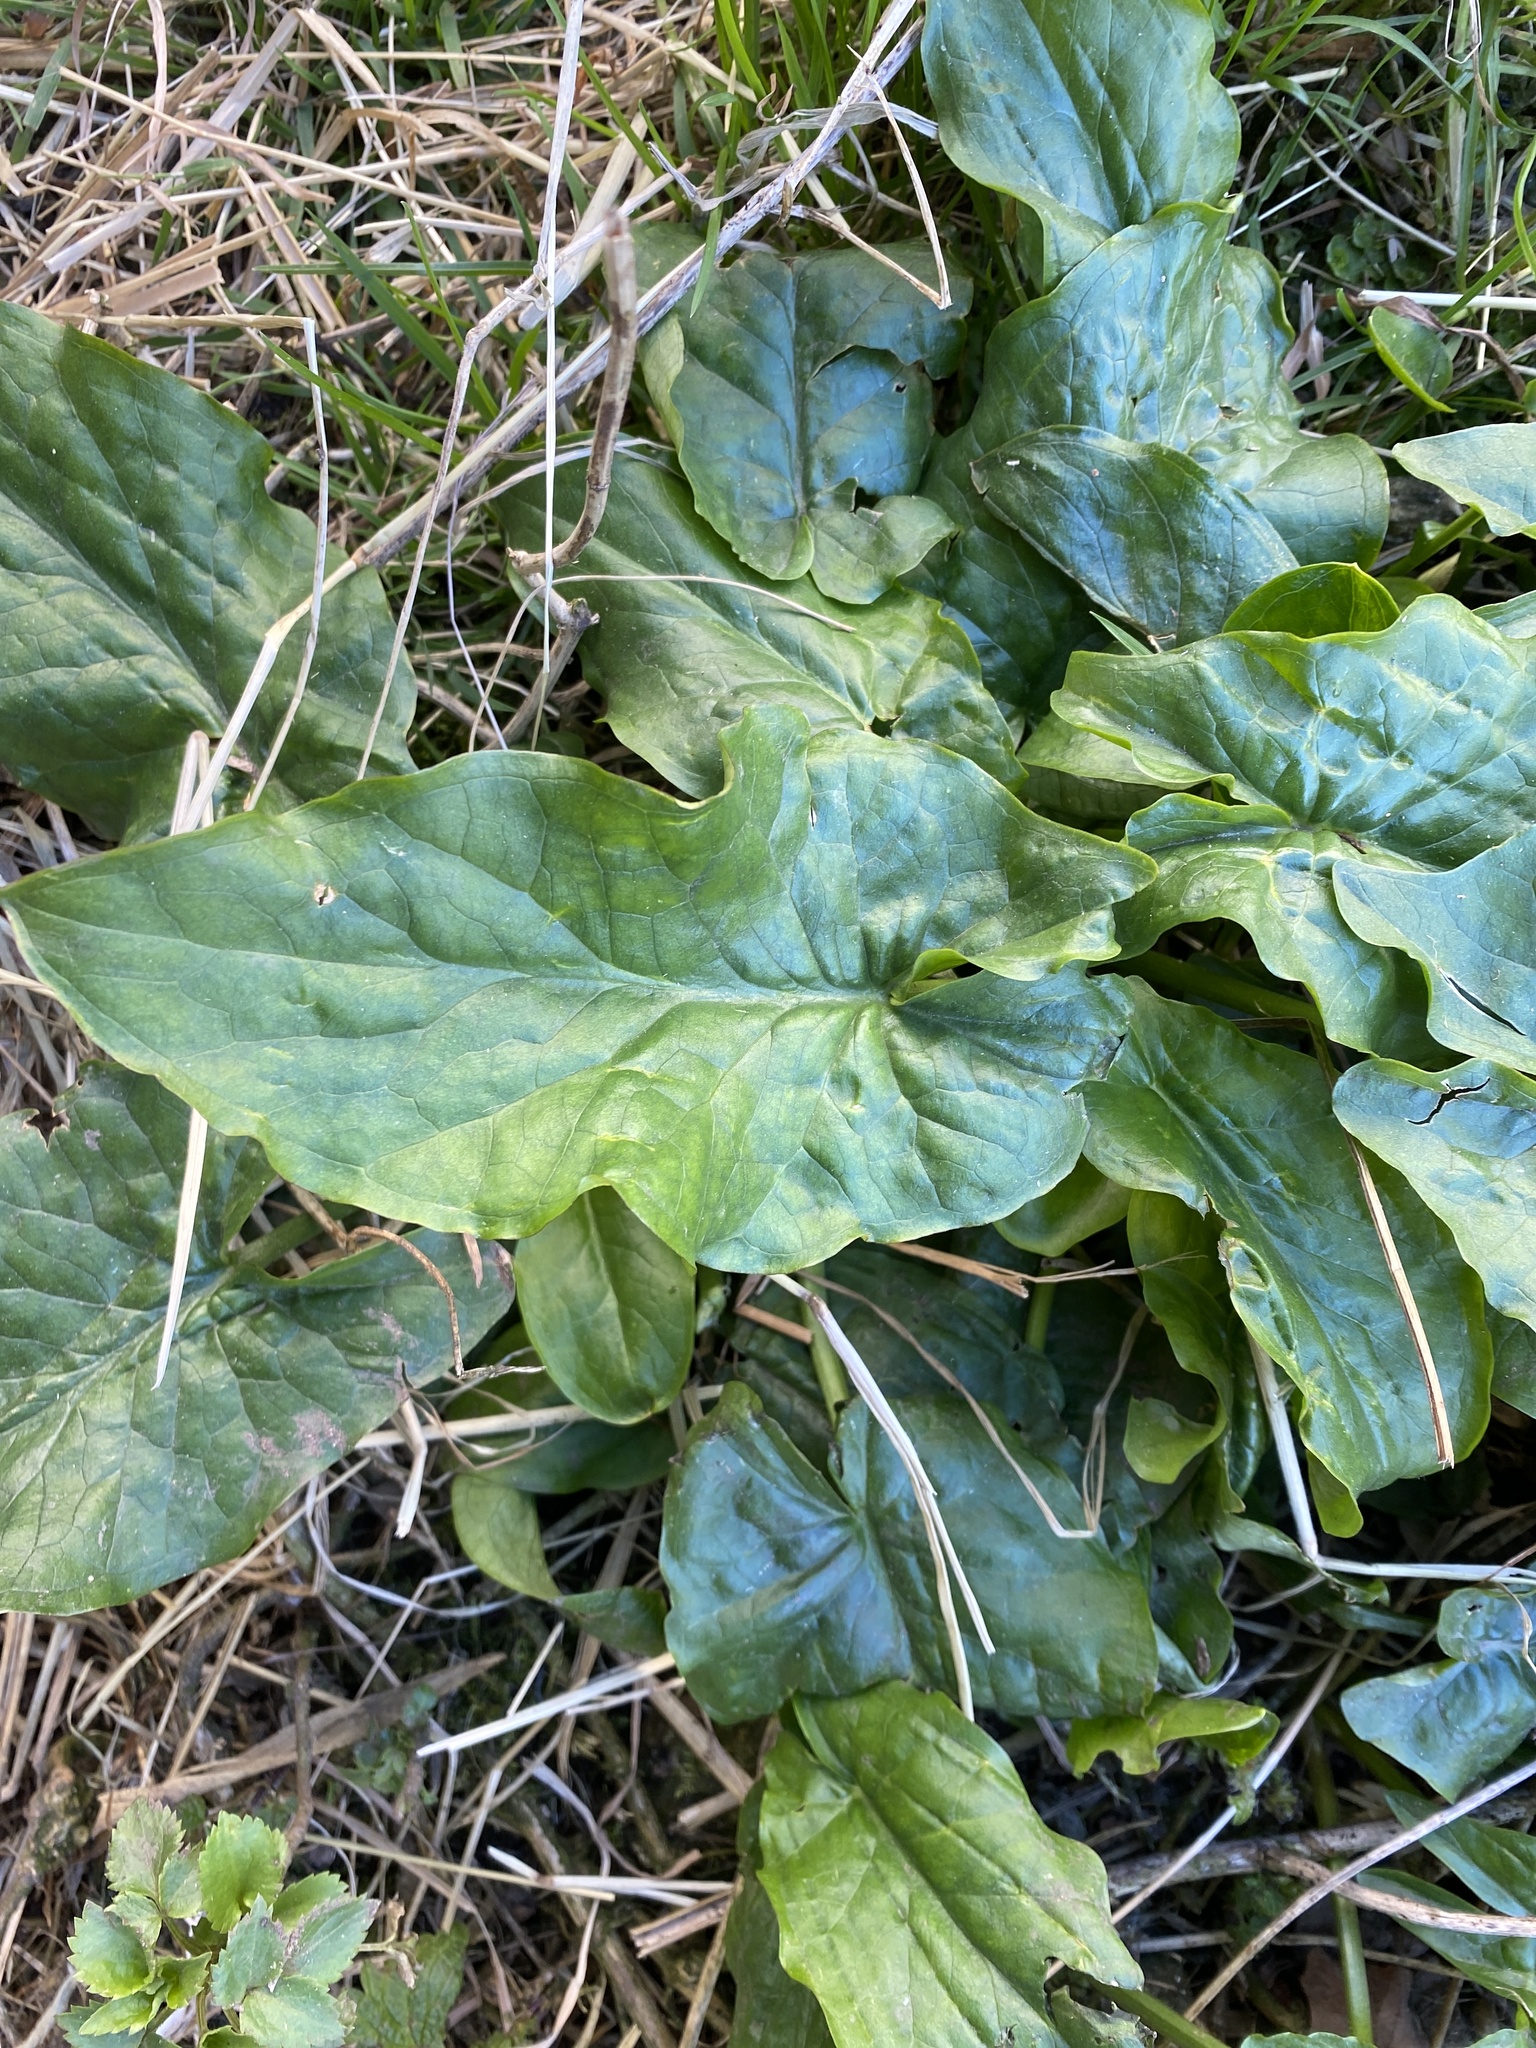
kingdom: Plantae
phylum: Tracheophyta
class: Liliopsida
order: Alismatales
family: Araceae
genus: Arum
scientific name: Arum maculatum
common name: Lords-and-ladies
